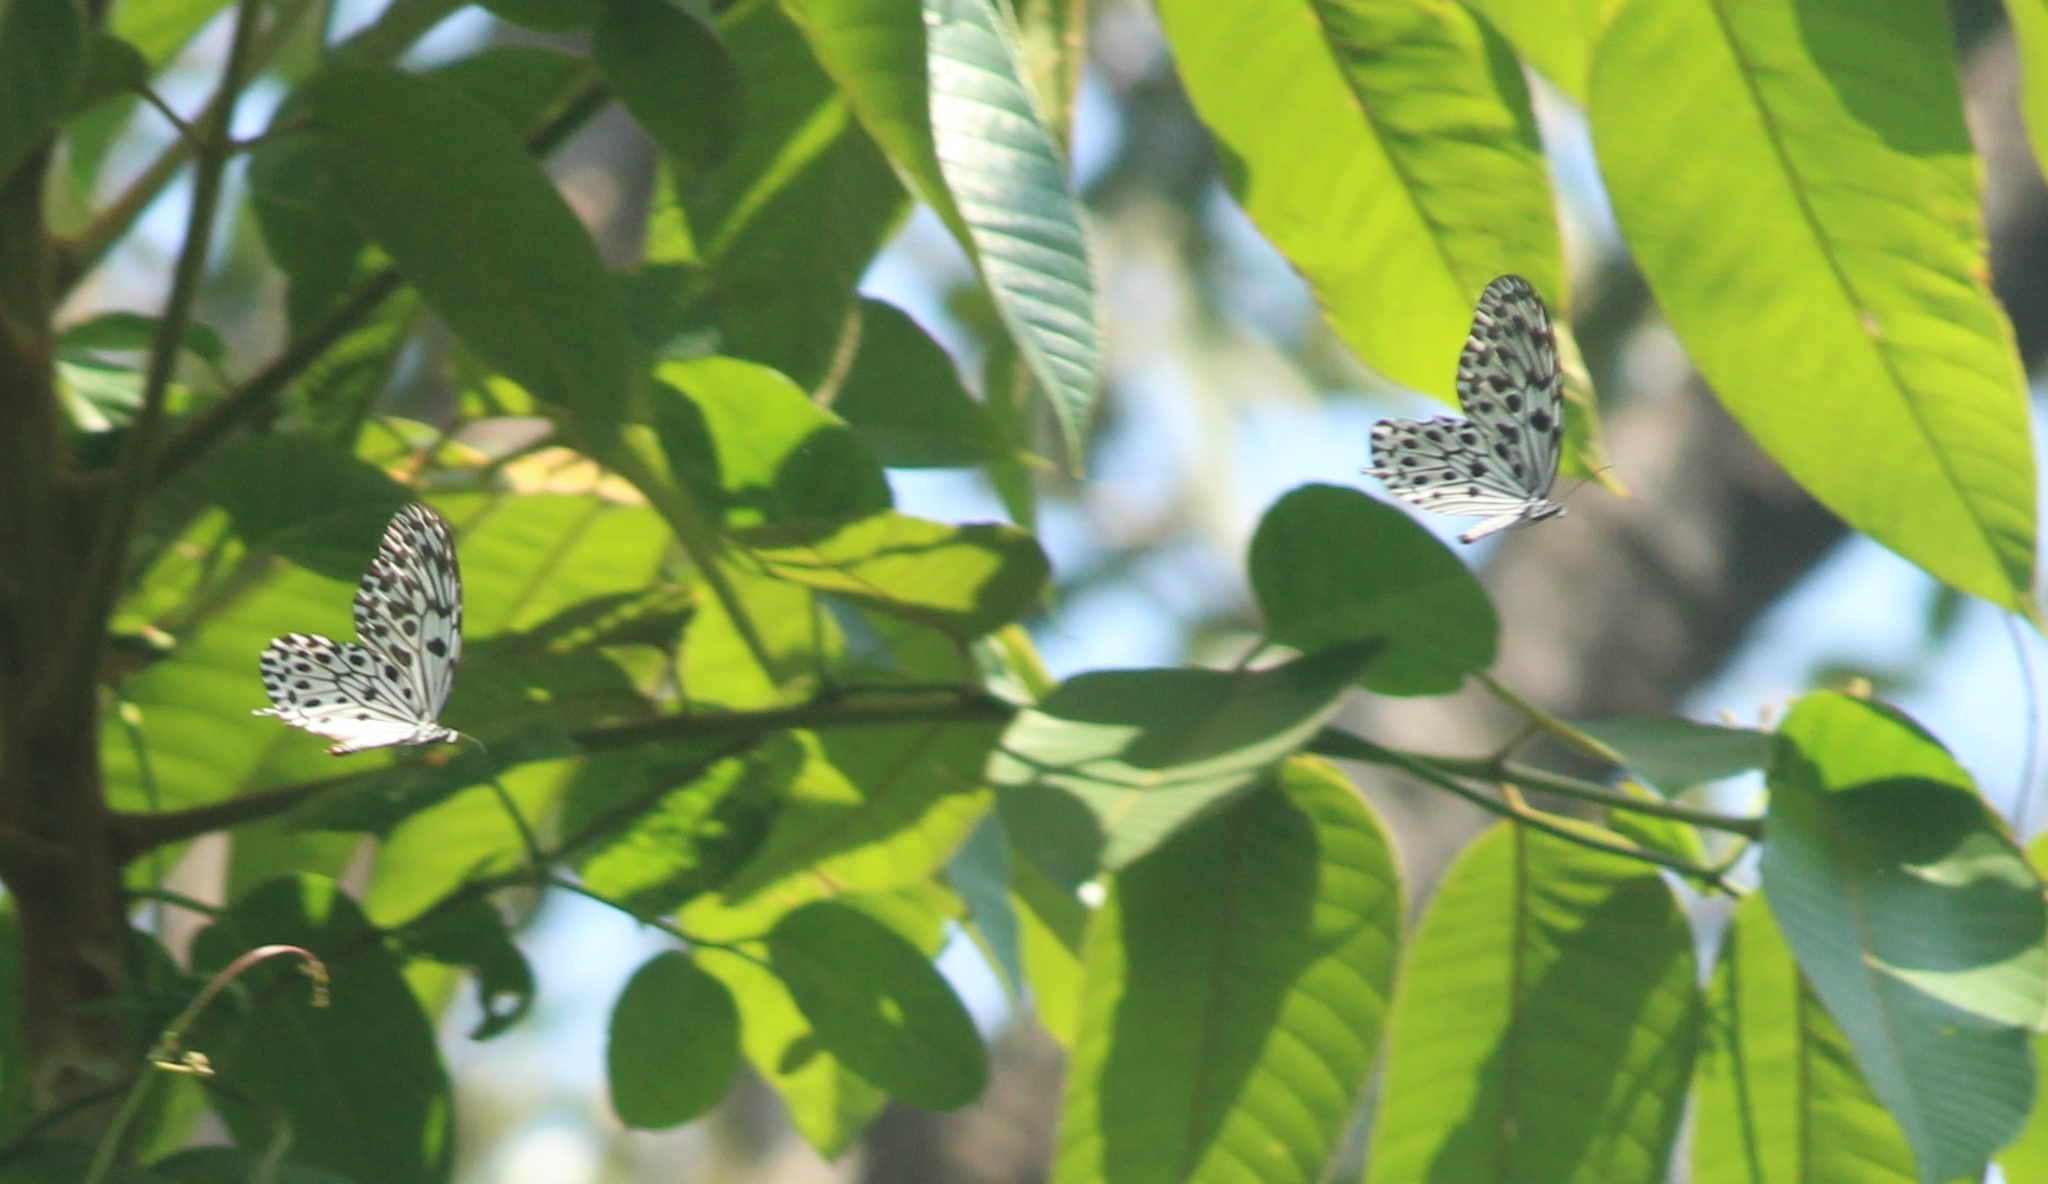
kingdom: Animalia
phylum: Arthropoda
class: Insecta
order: Lepidoptera
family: Nymphalidae
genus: Idea
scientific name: Idea malabarica
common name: Malabar tree-nymph
